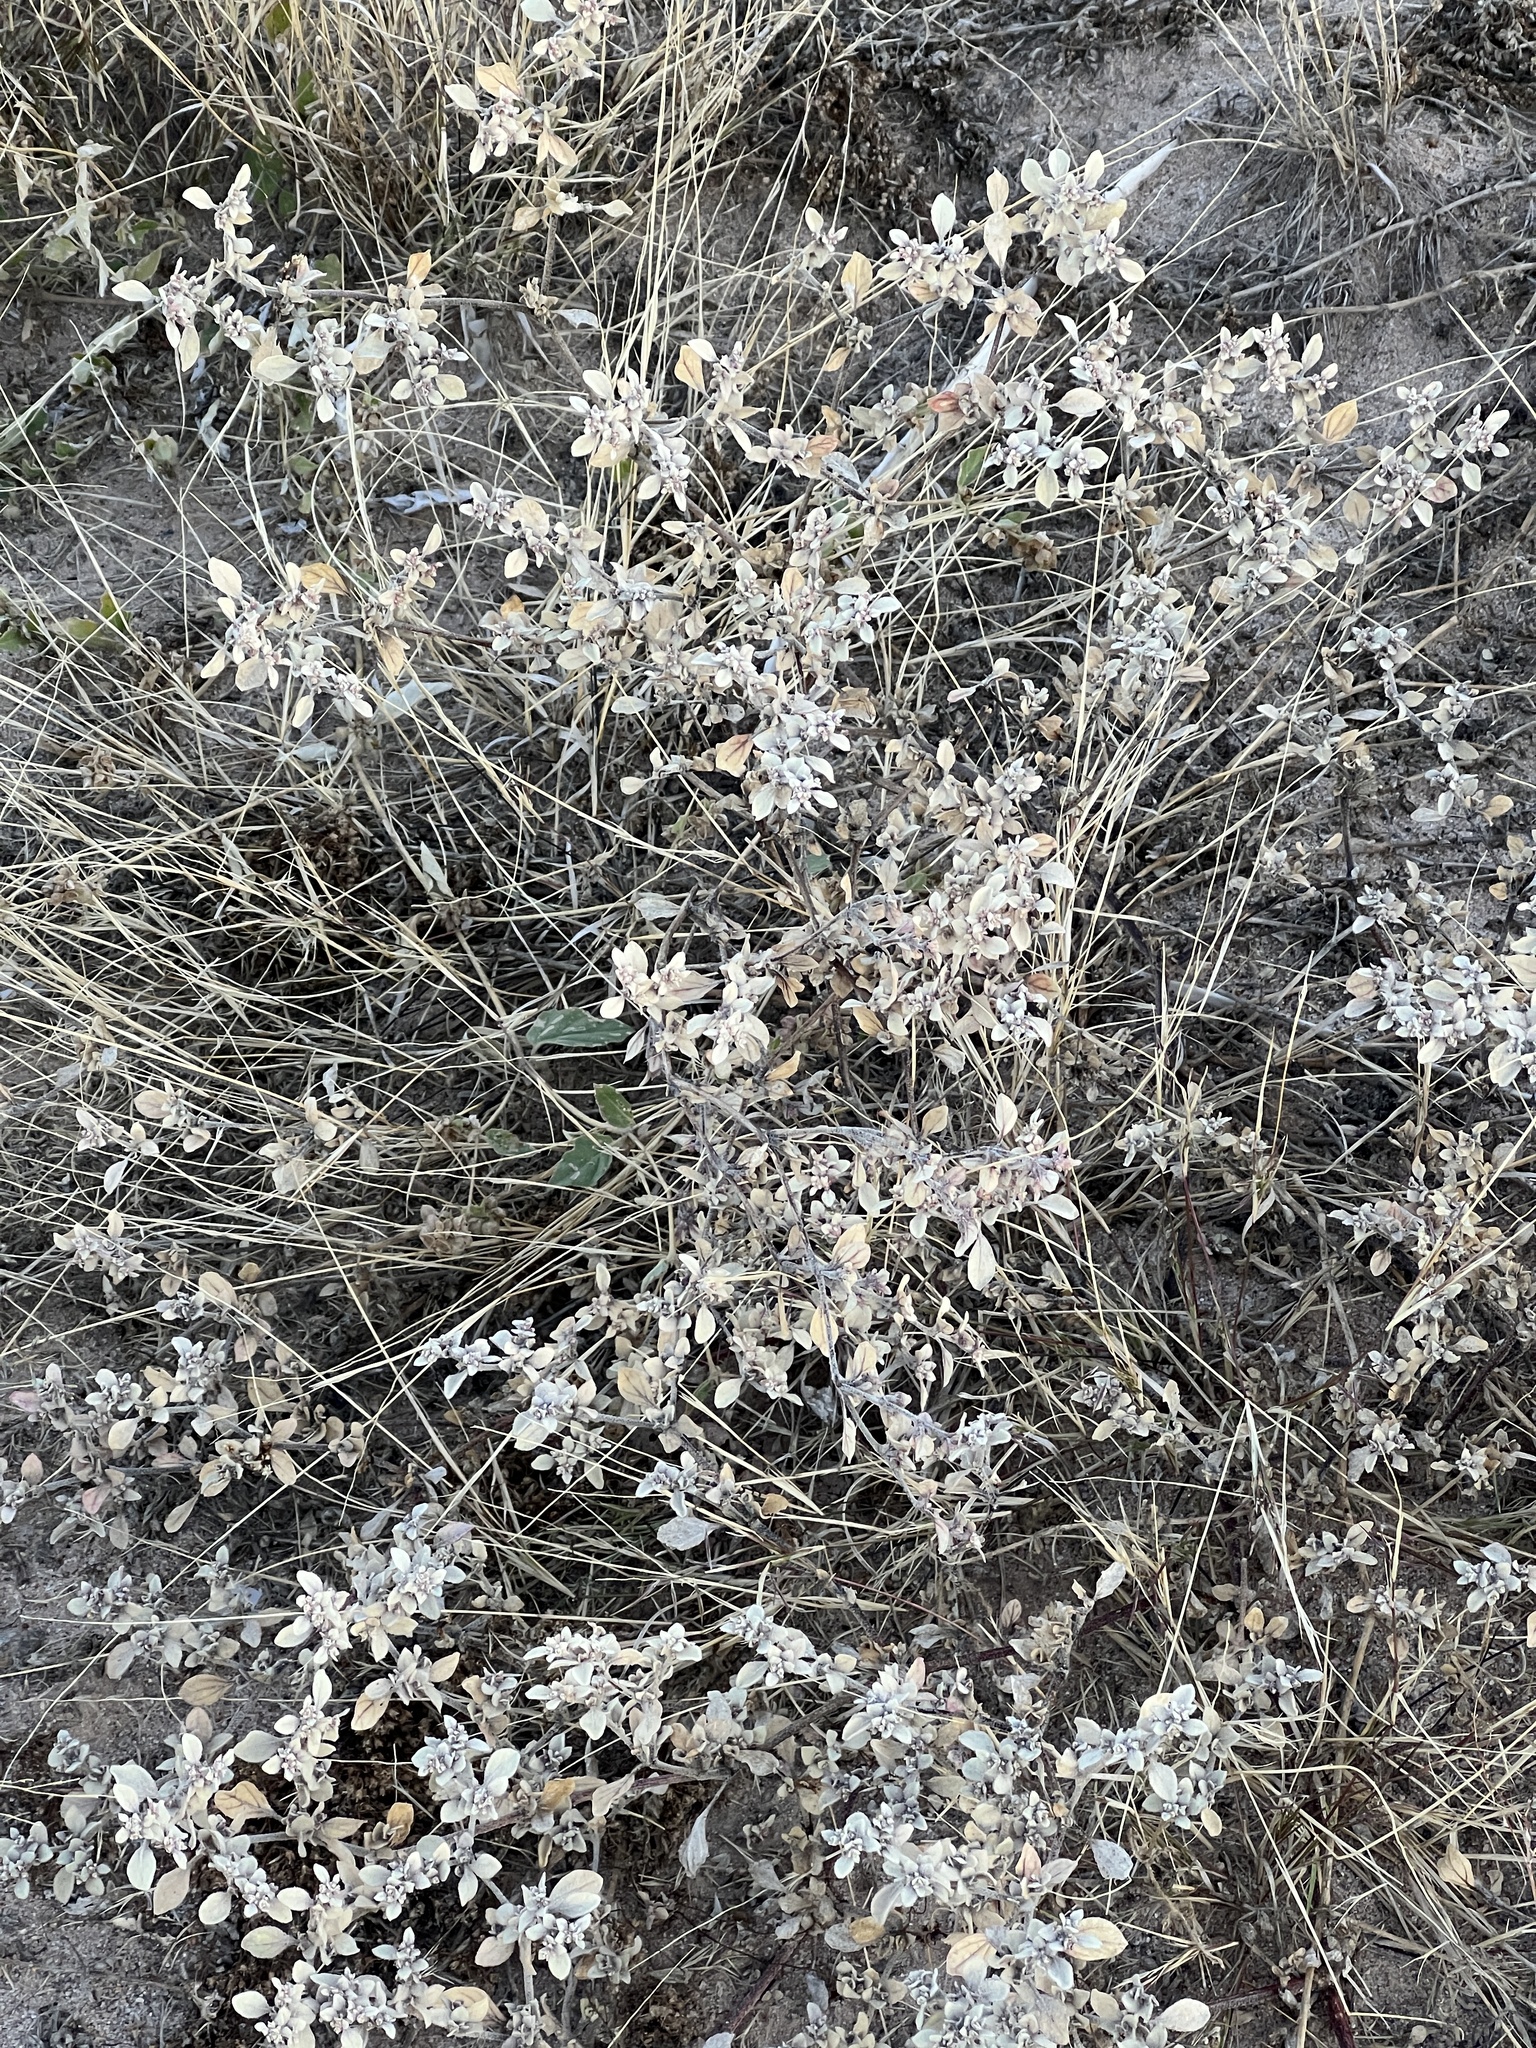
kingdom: Plantae
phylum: Tracheophyta
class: Magnoliopsida
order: Caryophyllales
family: Amaranthaceae
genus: Tidestromia
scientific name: Tidestromia lanuginosa
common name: Woolly tidestromia
